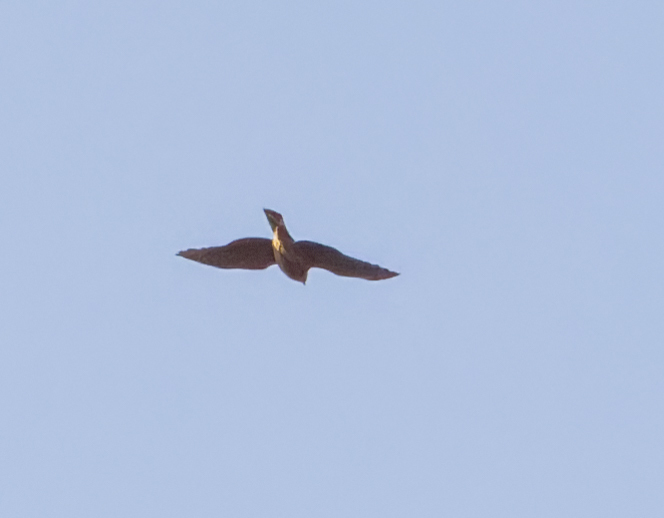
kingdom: Animalia
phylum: Chordata
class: Aves
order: Accipitriformes
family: Accipitridae
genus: Accipiter
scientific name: Accipiter nisus
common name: Eurasian sparrowhawk
